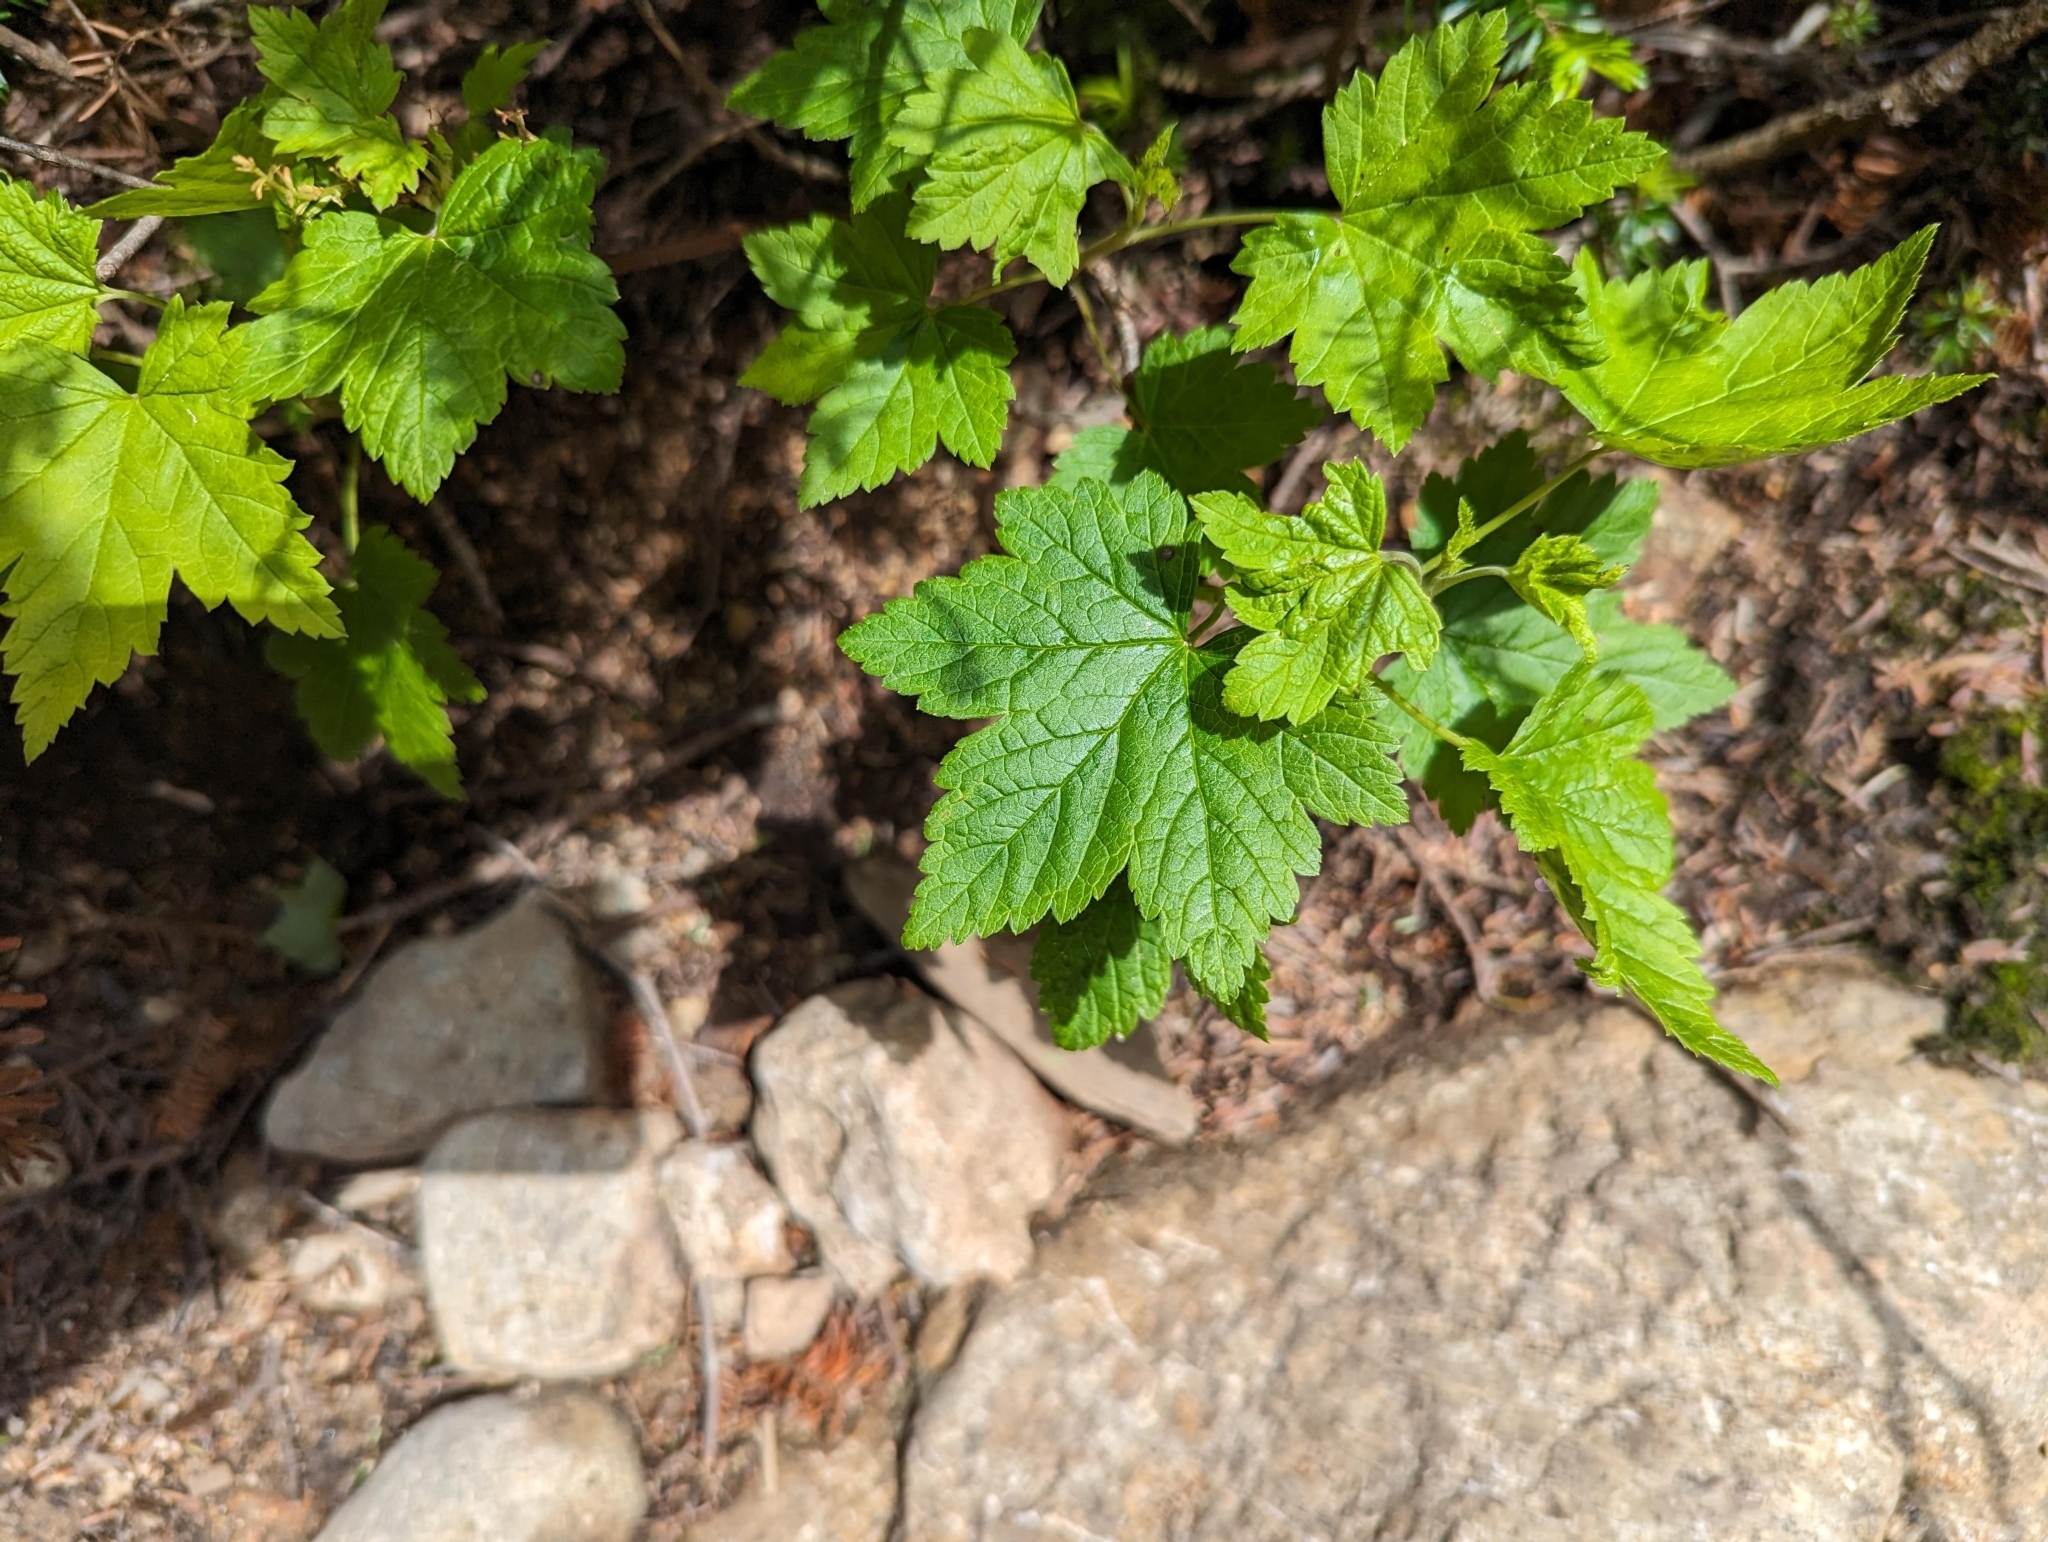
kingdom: Plantae
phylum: Tracheophyta
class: Magnoliopsida
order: Sapindales
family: Sapindaceae
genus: Acer
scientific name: Acer spicatum
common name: Mountain maple
